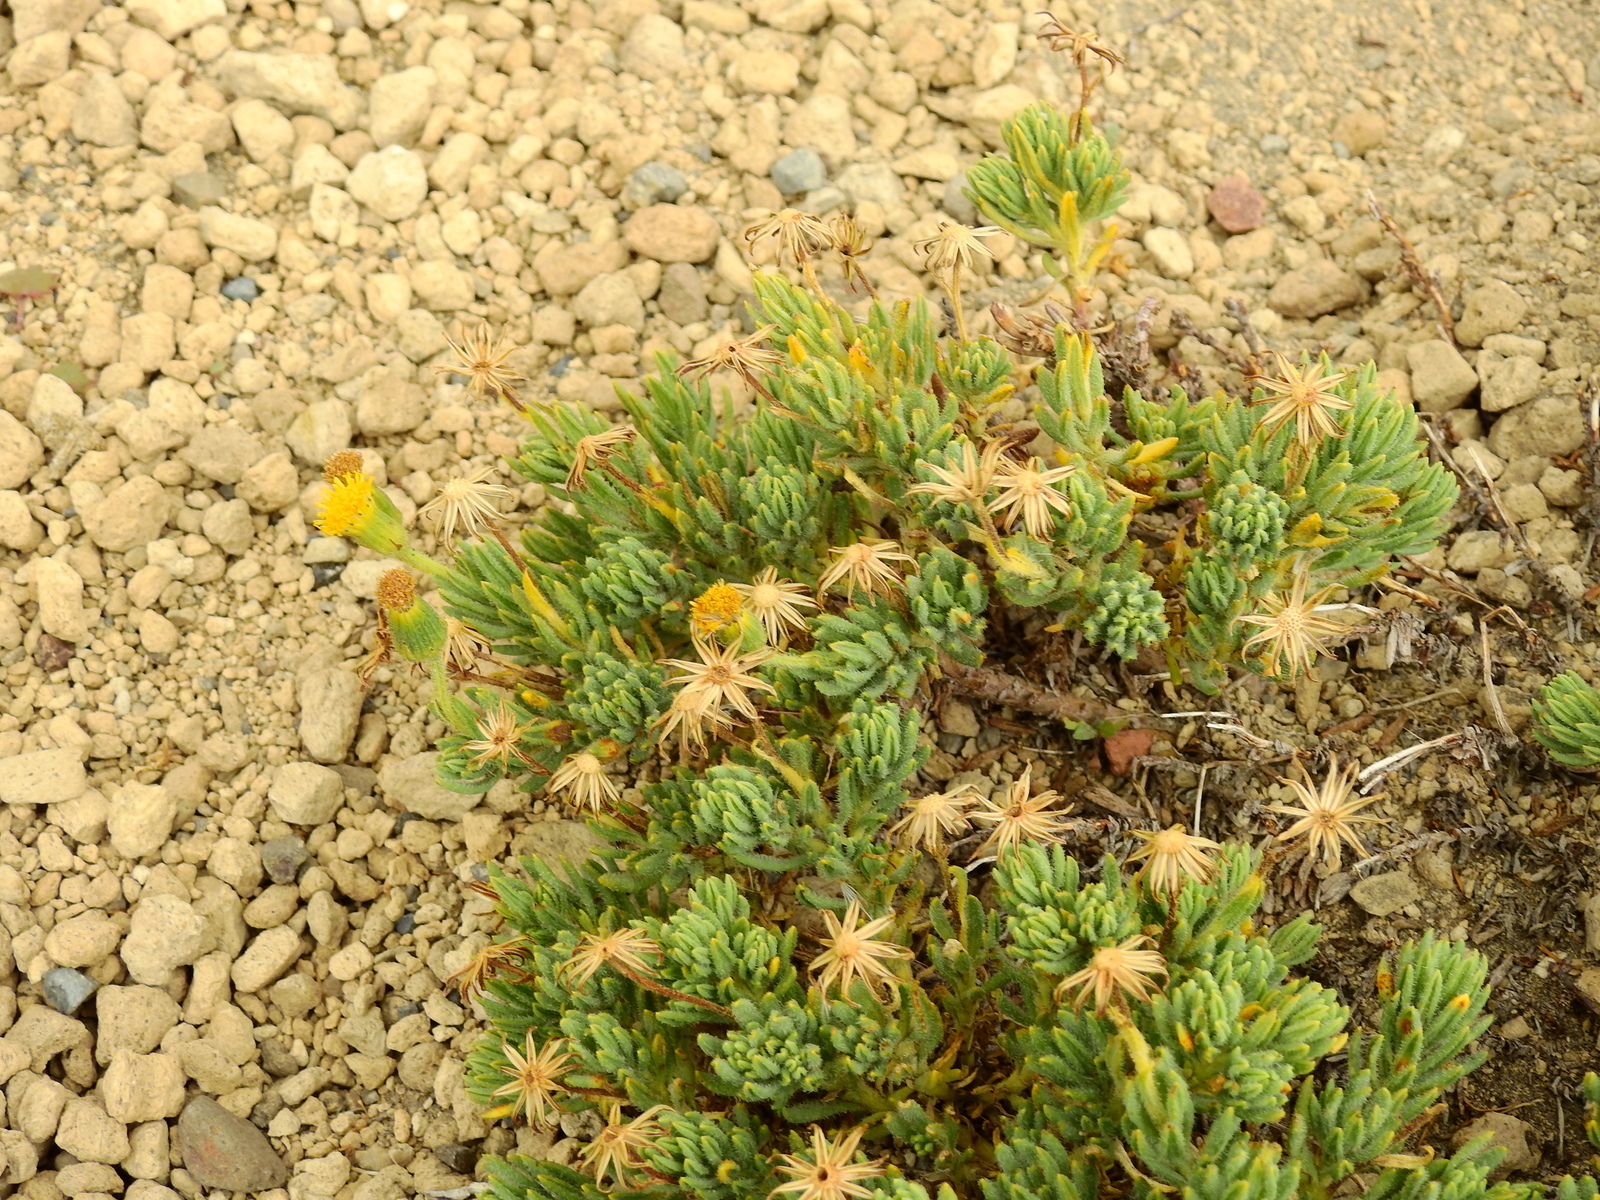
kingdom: Plantae
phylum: Tracheophyta
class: Magnoliopsida
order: Asterales
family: Asteraceae
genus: Senecio
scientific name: Senecio tristis
